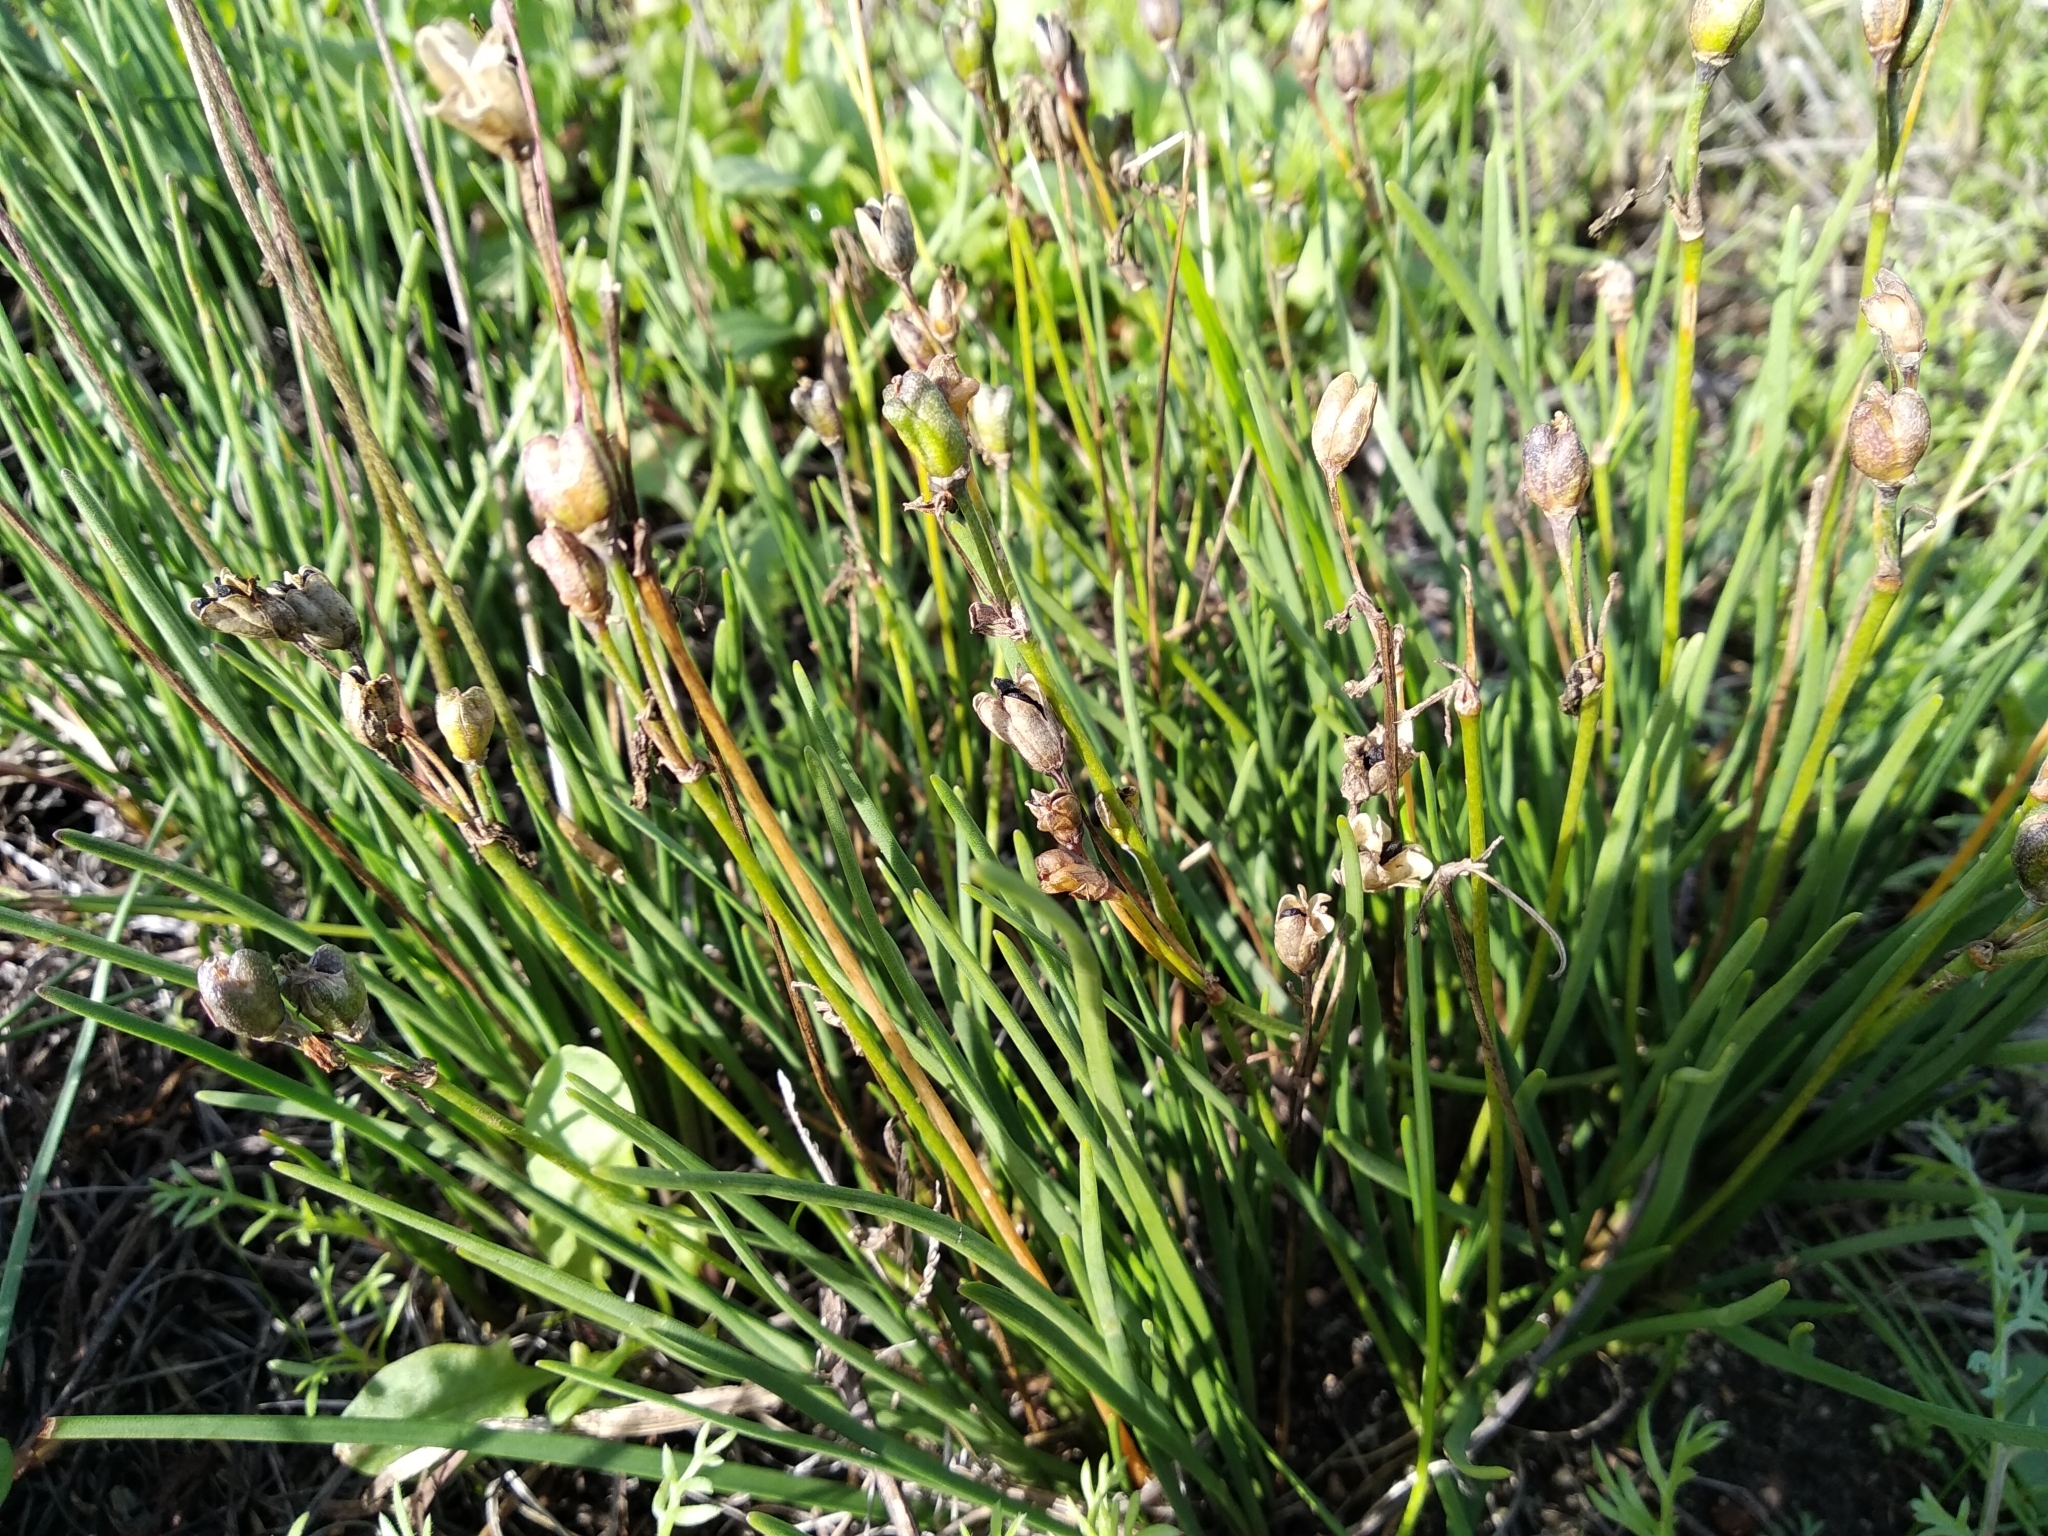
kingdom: Plantae
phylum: Tracheophyta
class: Liliopsida
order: Asparagales
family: Amaryllidaceae
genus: Tulbaghia
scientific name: Tulbaghia alliacea
